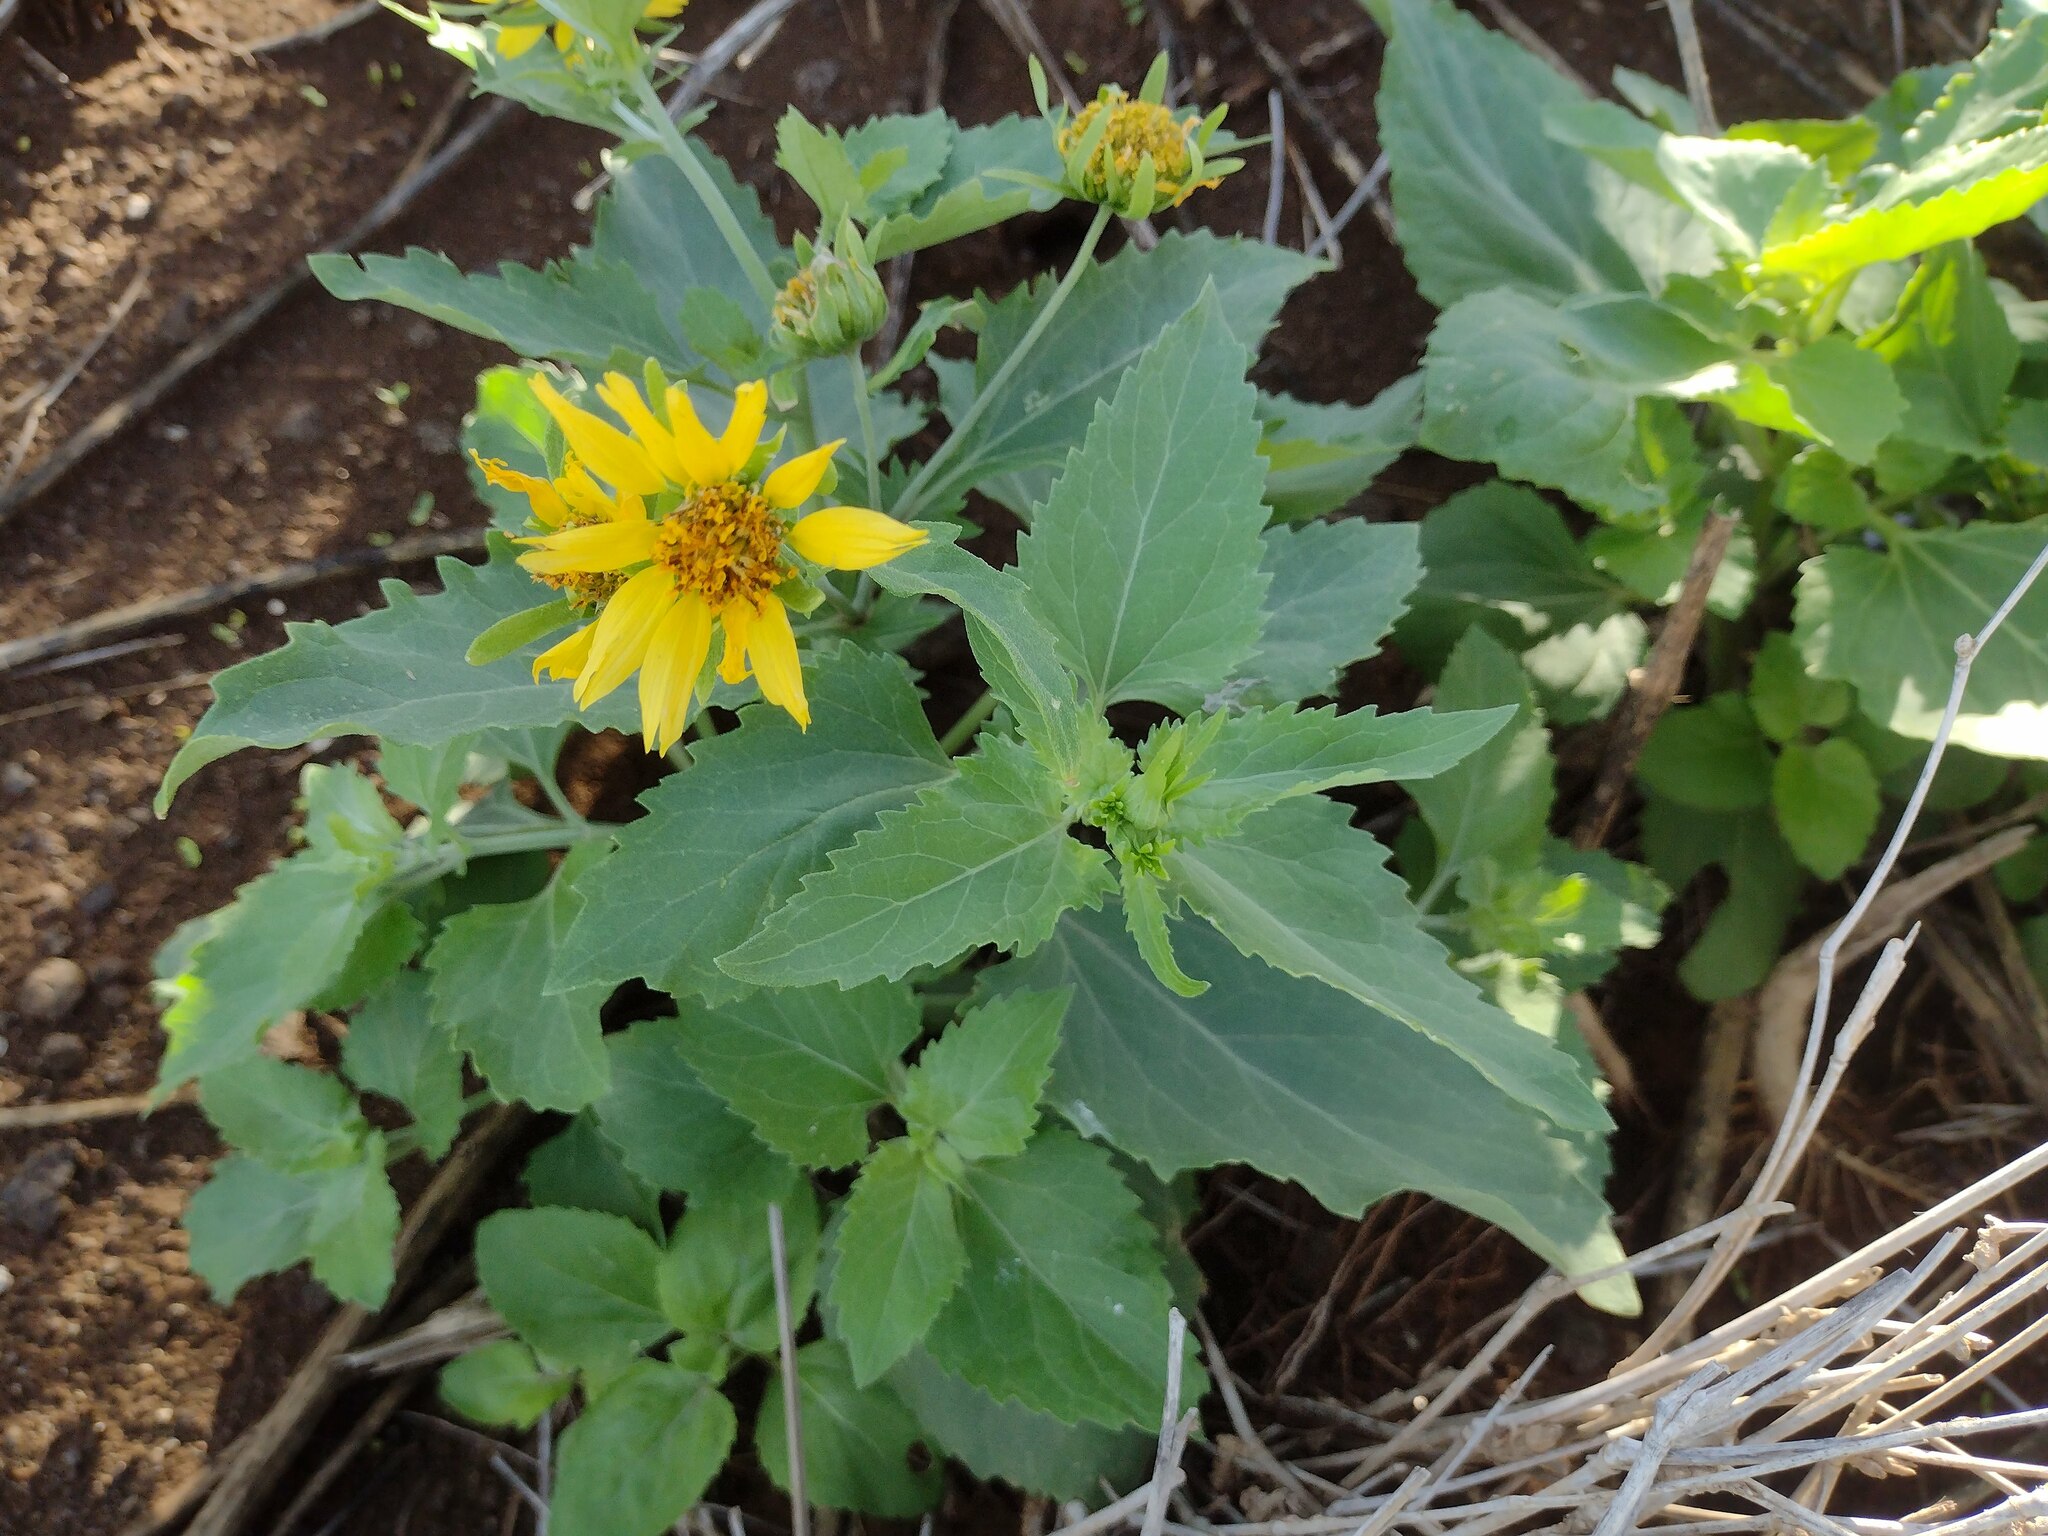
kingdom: Plantae
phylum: Tracheophyta
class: Magnoliopsida
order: Asterales
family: Asteraceae
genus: Verbesina
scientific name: Verbesina encelioides
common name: Golden crownbeard
